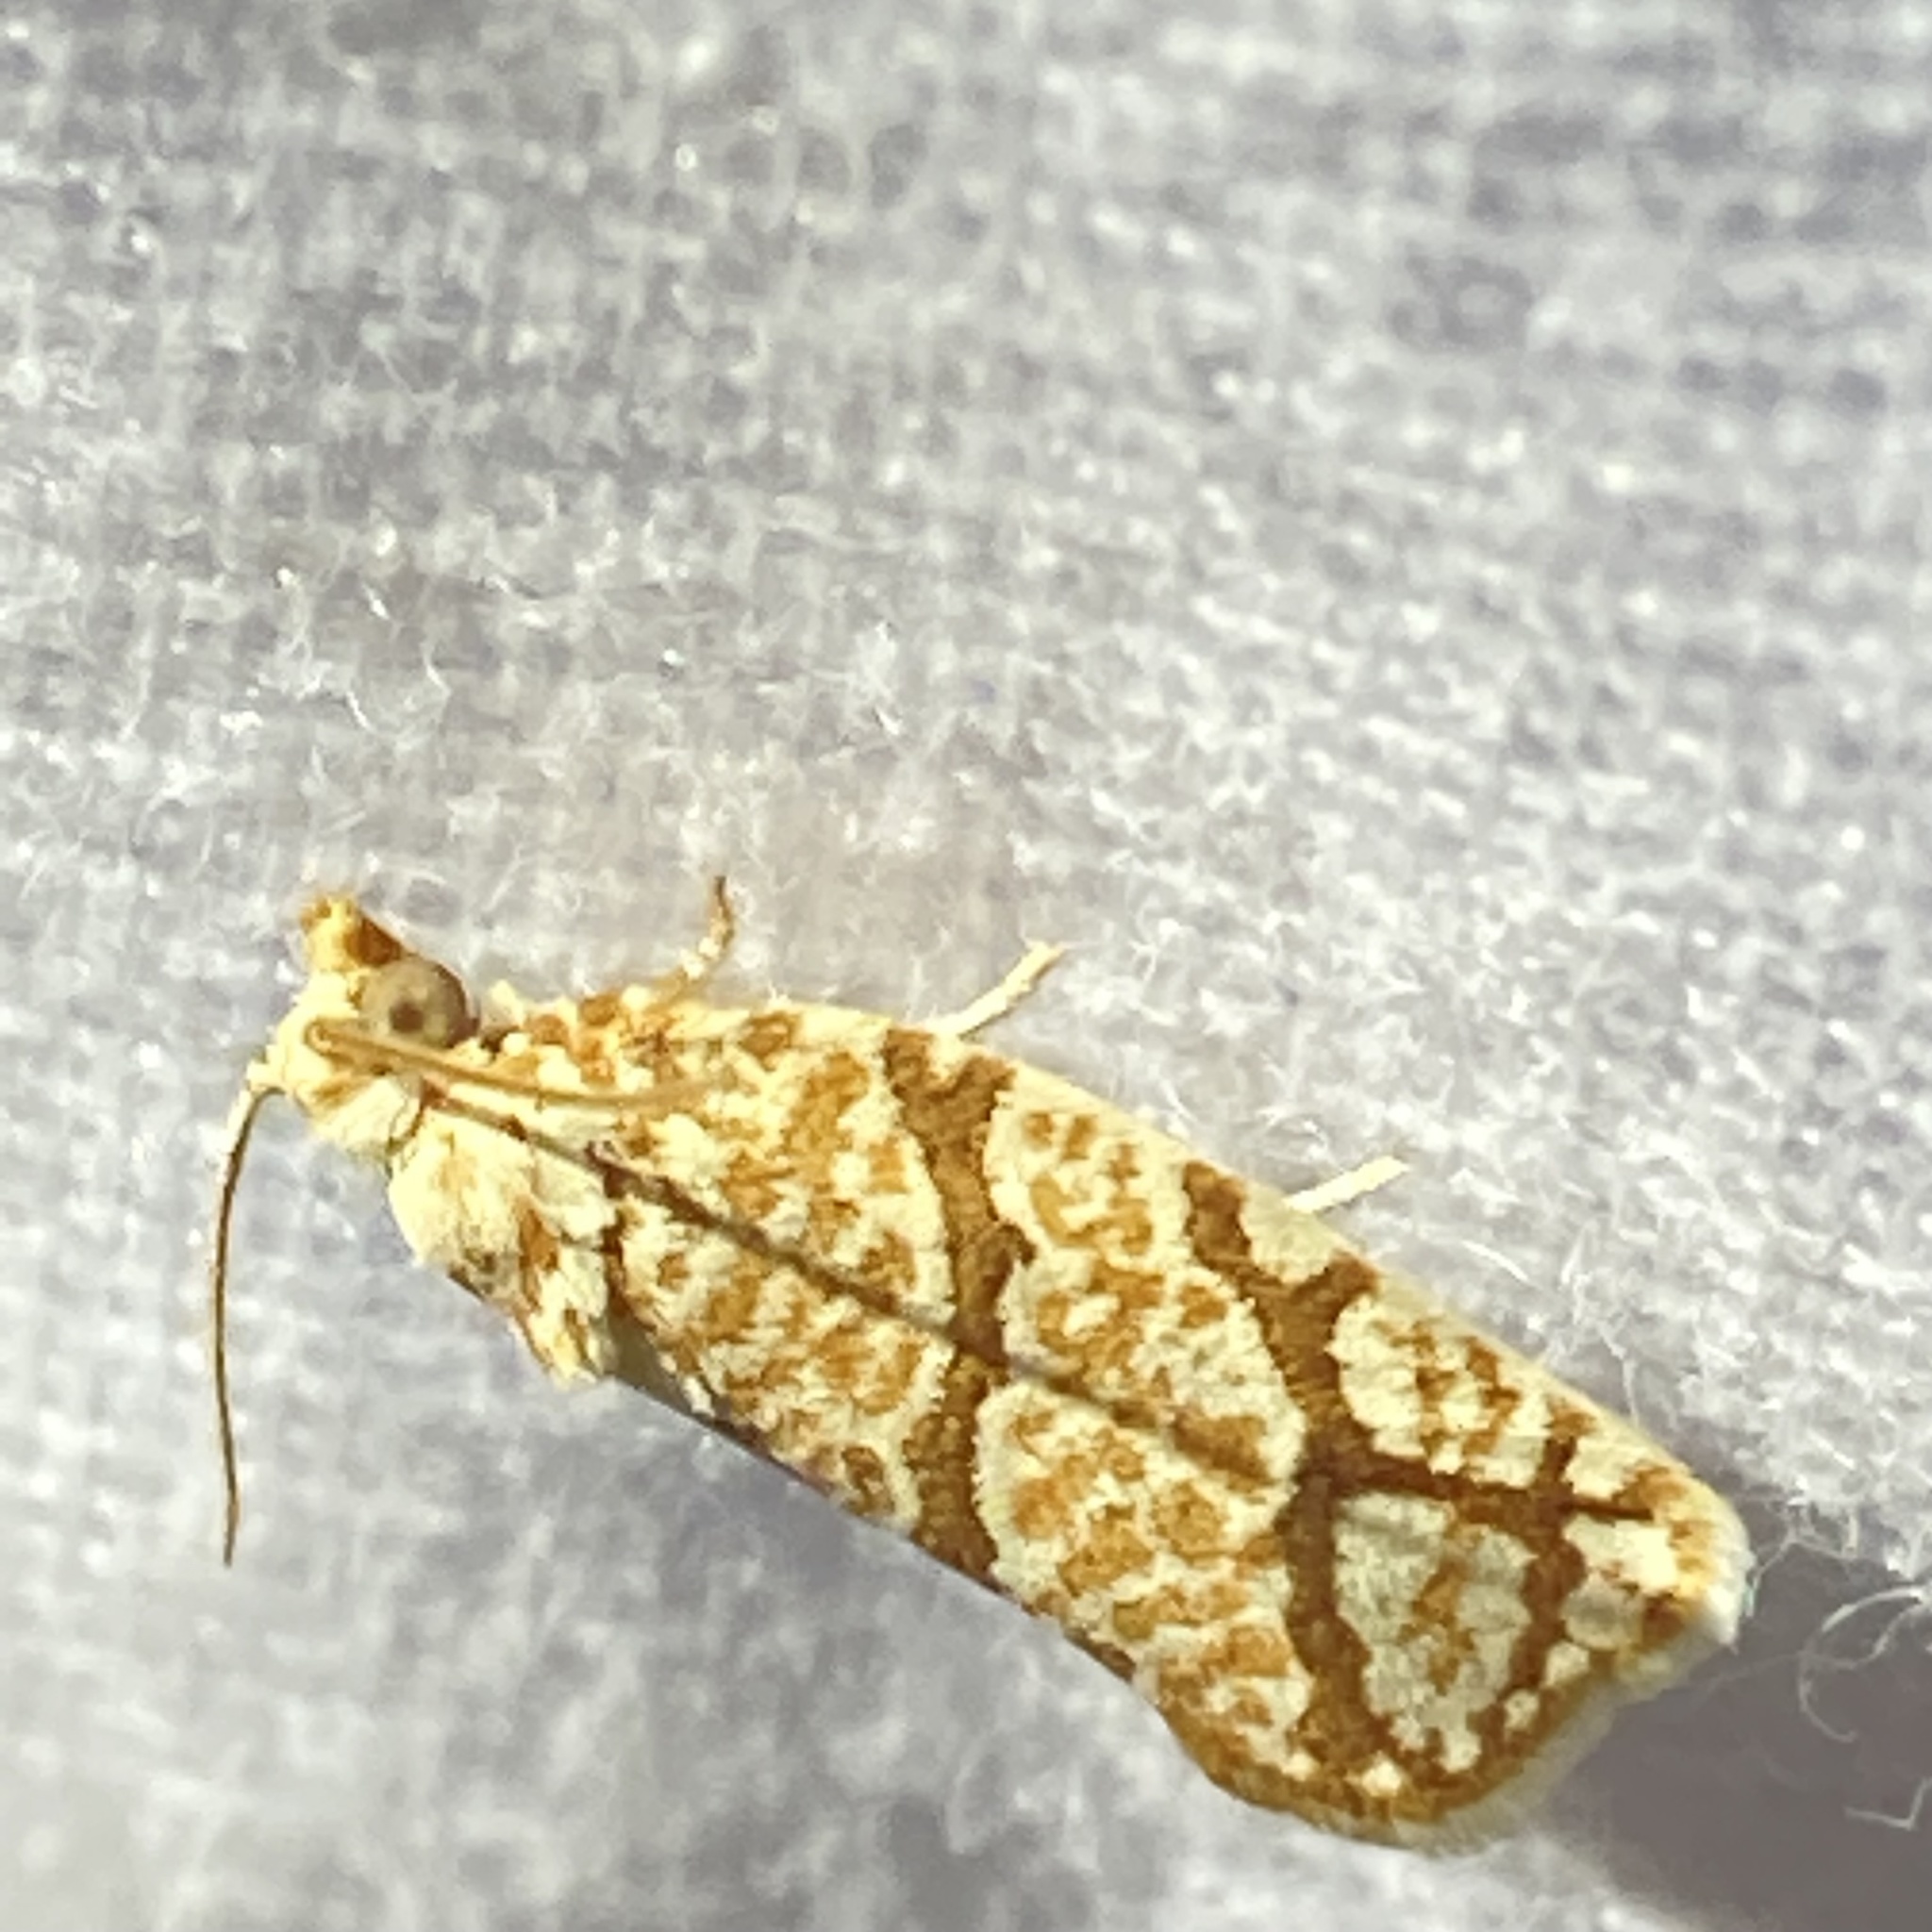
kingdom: Animalia
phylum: Arthropoda
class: Insecta
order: Lepidoptera
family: Tortricidae
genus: Argyrotaenia
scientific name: Argyrotaenia quercifoliana
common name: Yellow-winged oak leafroller moth
